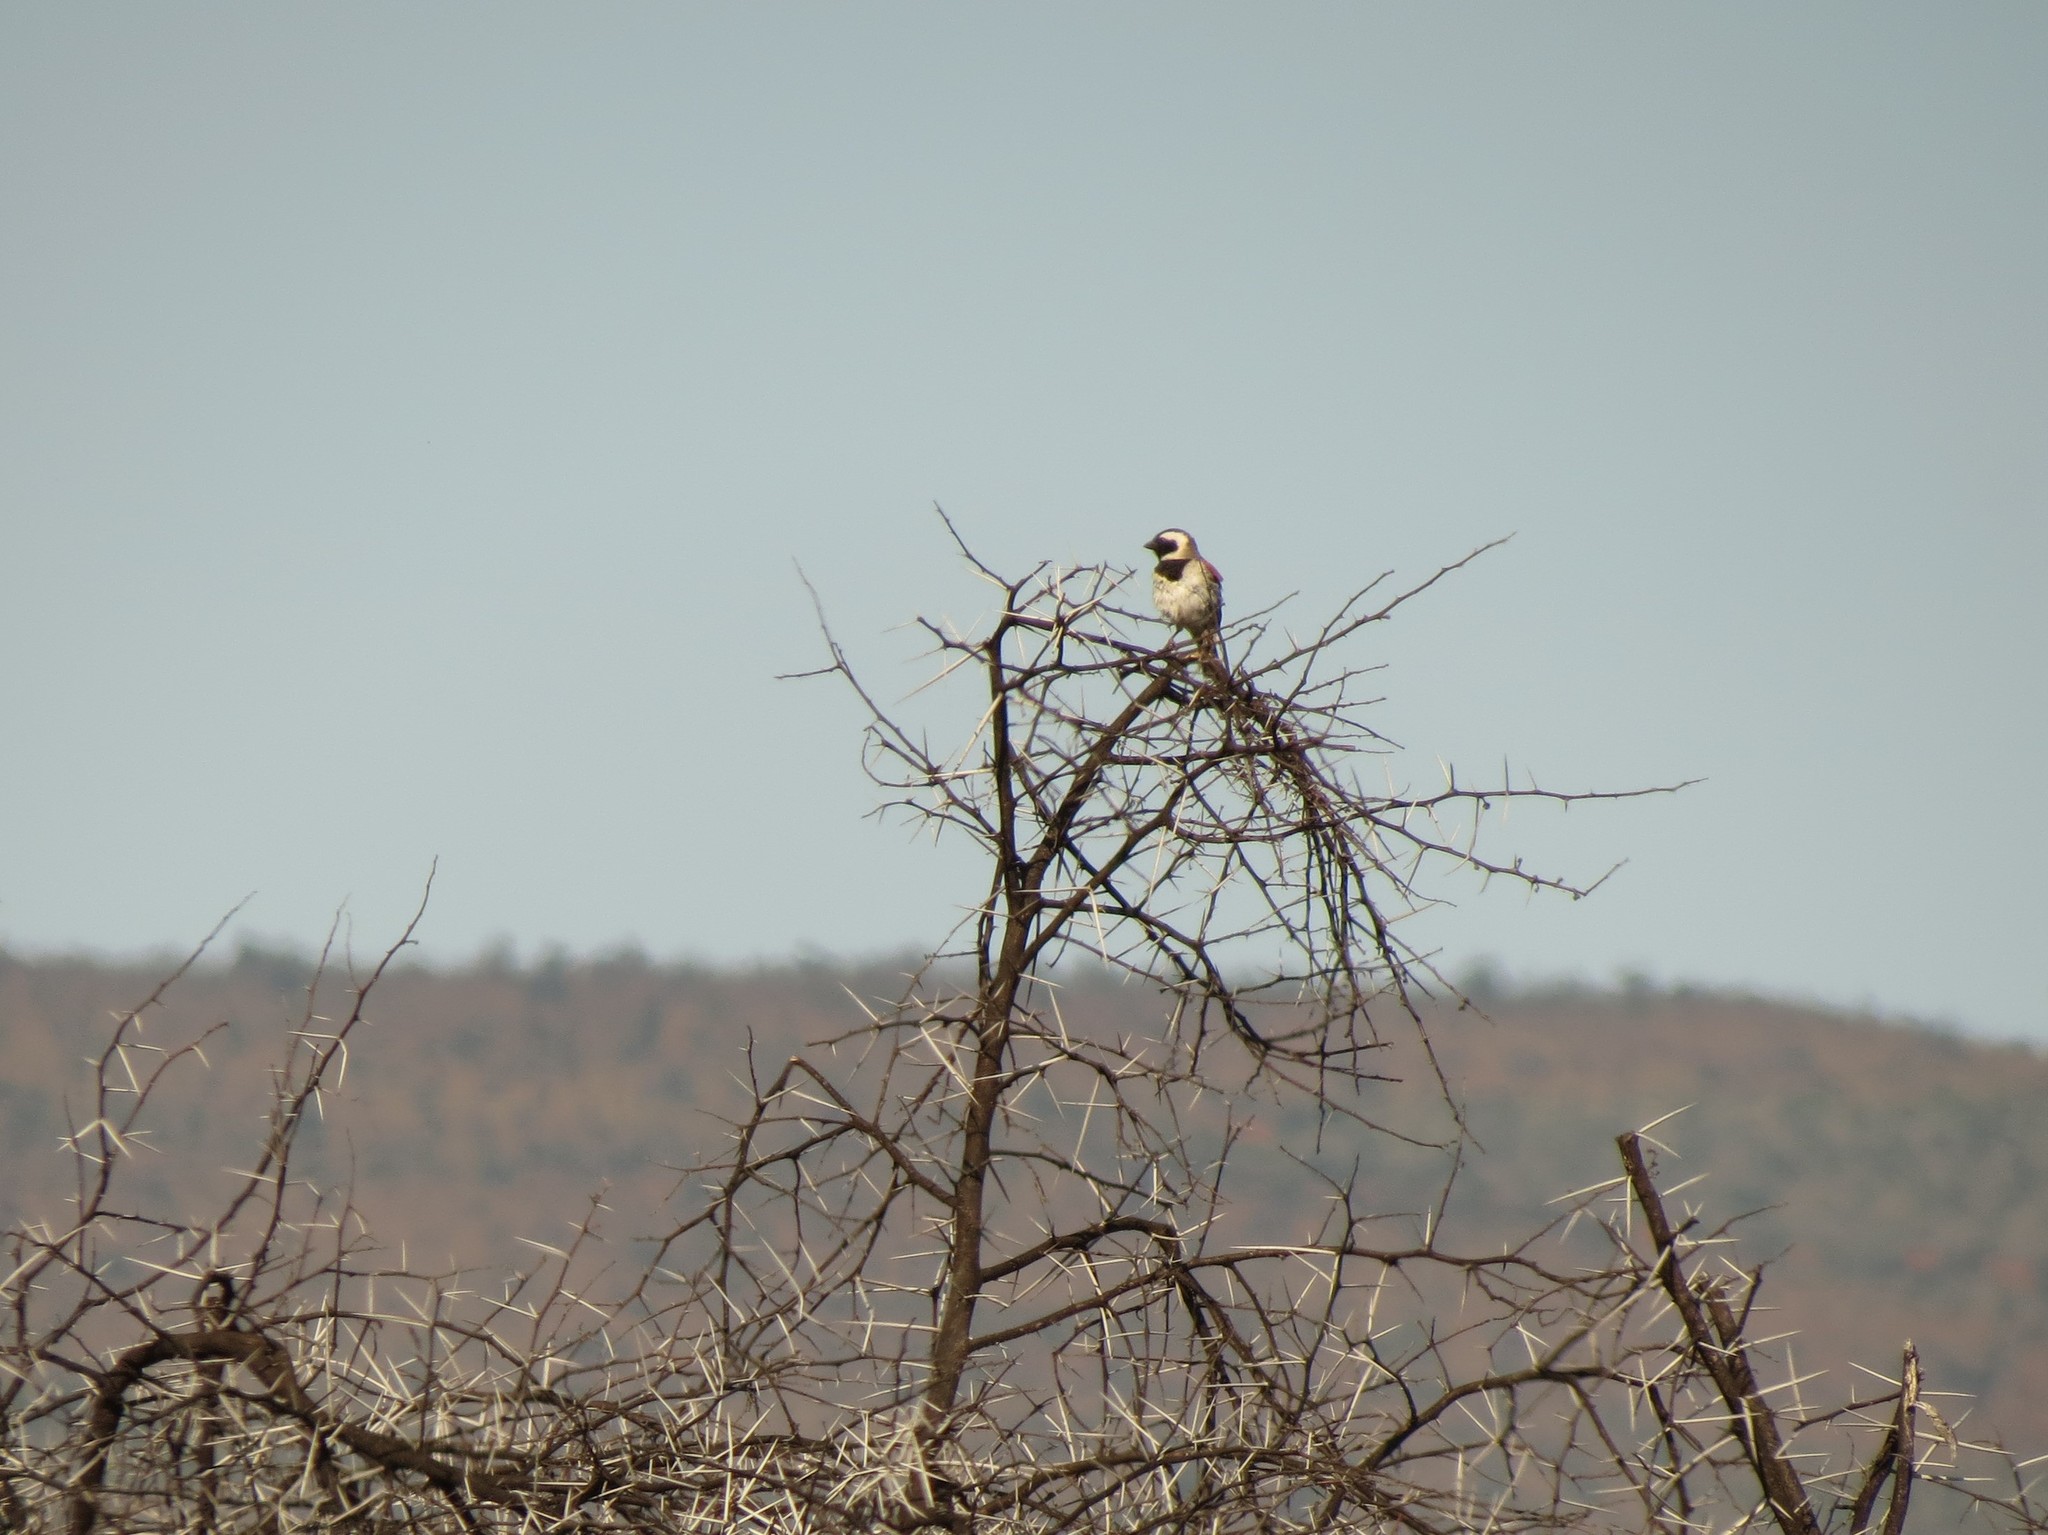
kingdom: Animalia
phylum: Chordata
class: Aves
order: Passeriformes
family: Passeridae
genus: Passer
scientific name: Passer melanurus
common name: Cape sparrow
